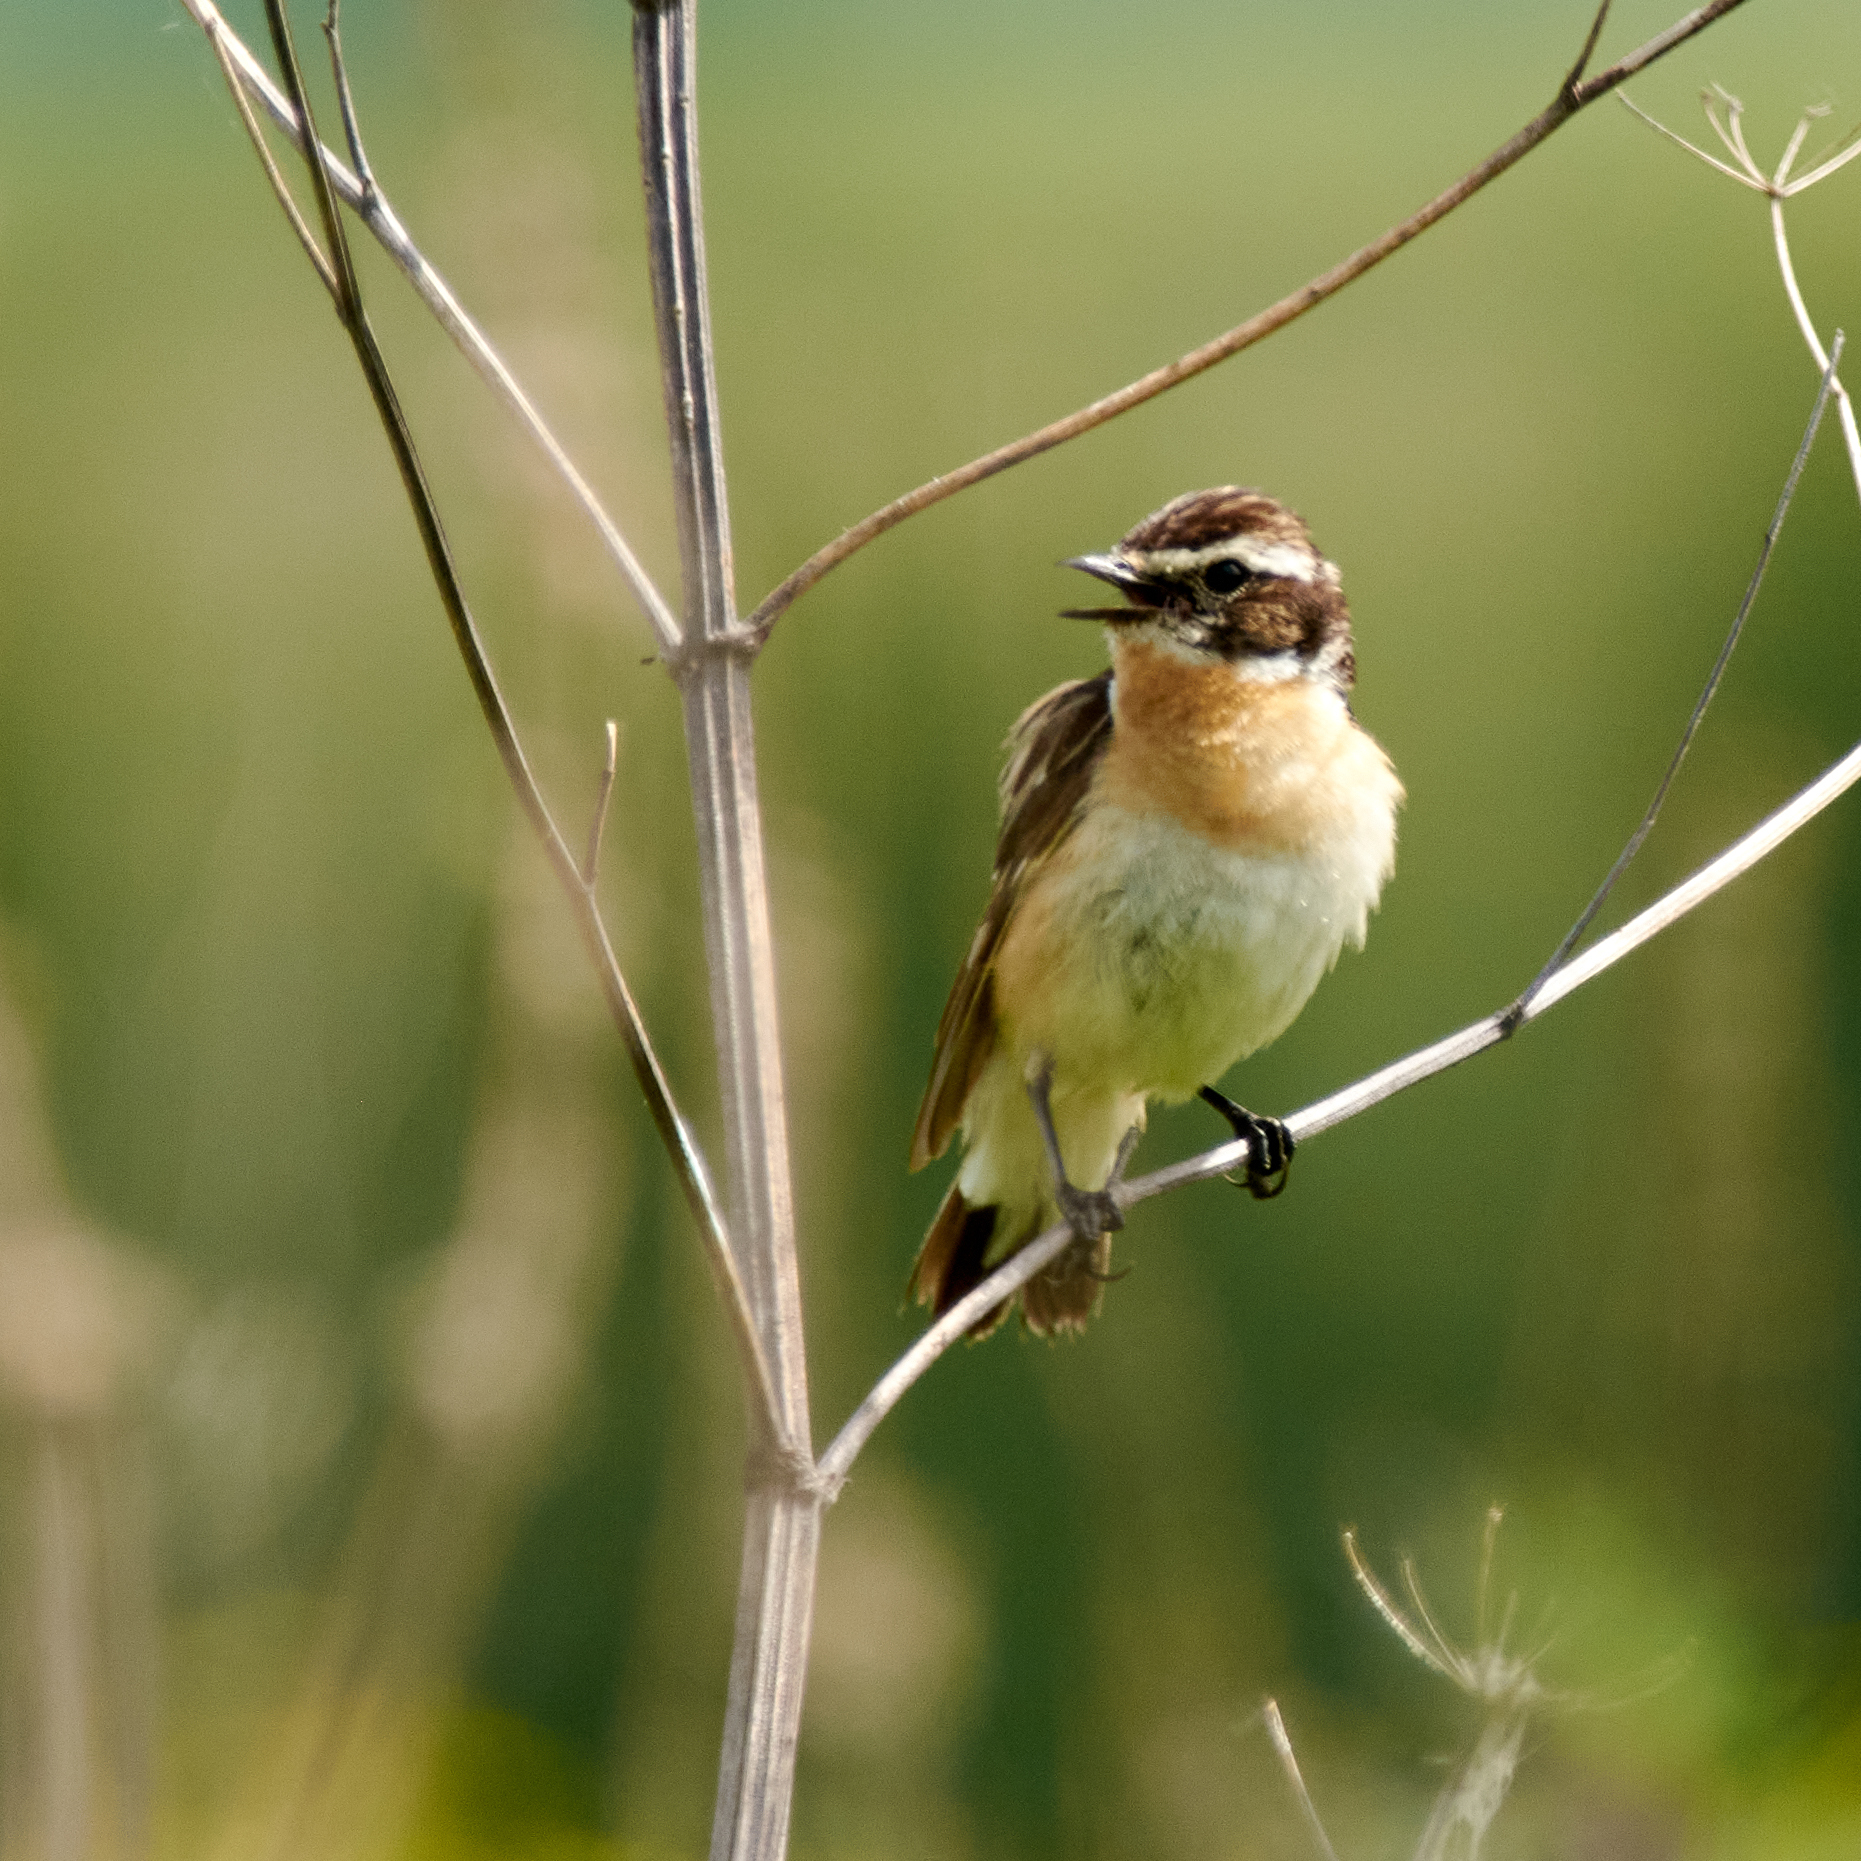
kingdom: Animalia
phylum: Chordata
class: Aves
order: Passeriformes
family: Muscicapidae
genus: Saxicola
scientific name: Saxicola rubetra
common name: Whinchat
